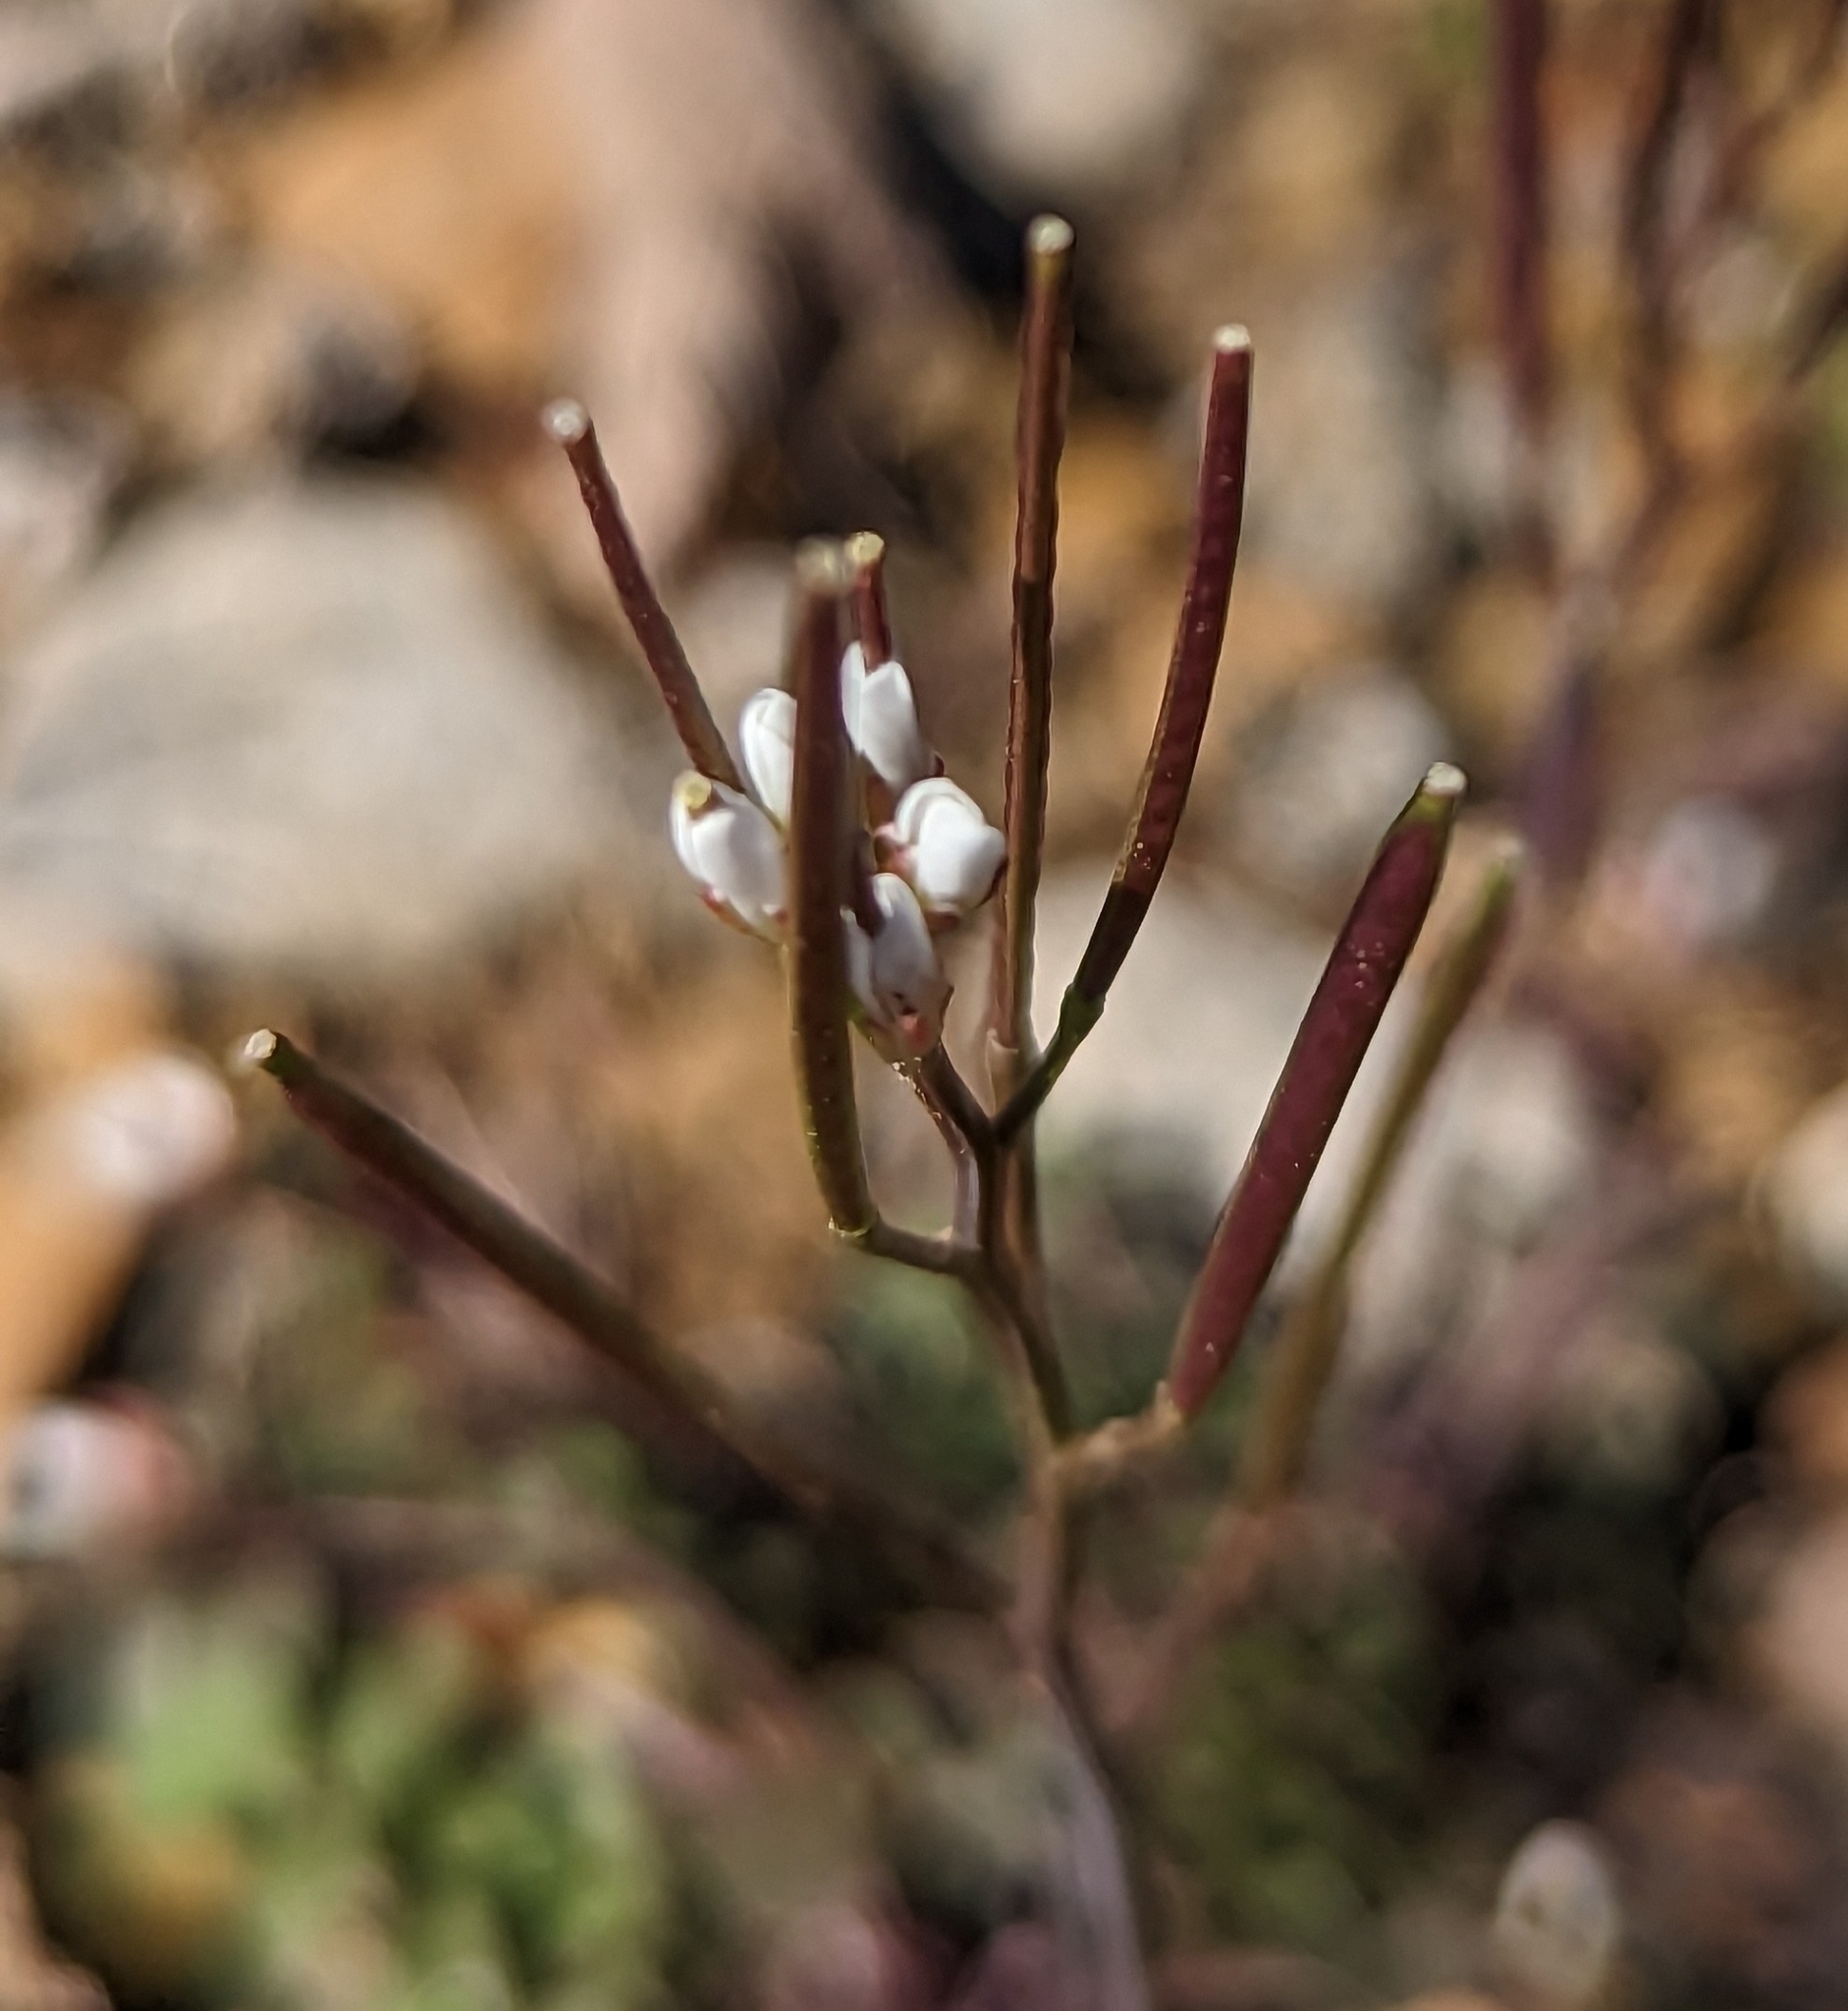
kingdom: Plantae
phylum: Tracheophyta
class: Magnoliopsida
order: Brassicales
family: Brassicaceae
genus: Cardamine
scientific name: Cardamine hirsuta
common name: Hairy bittercress
